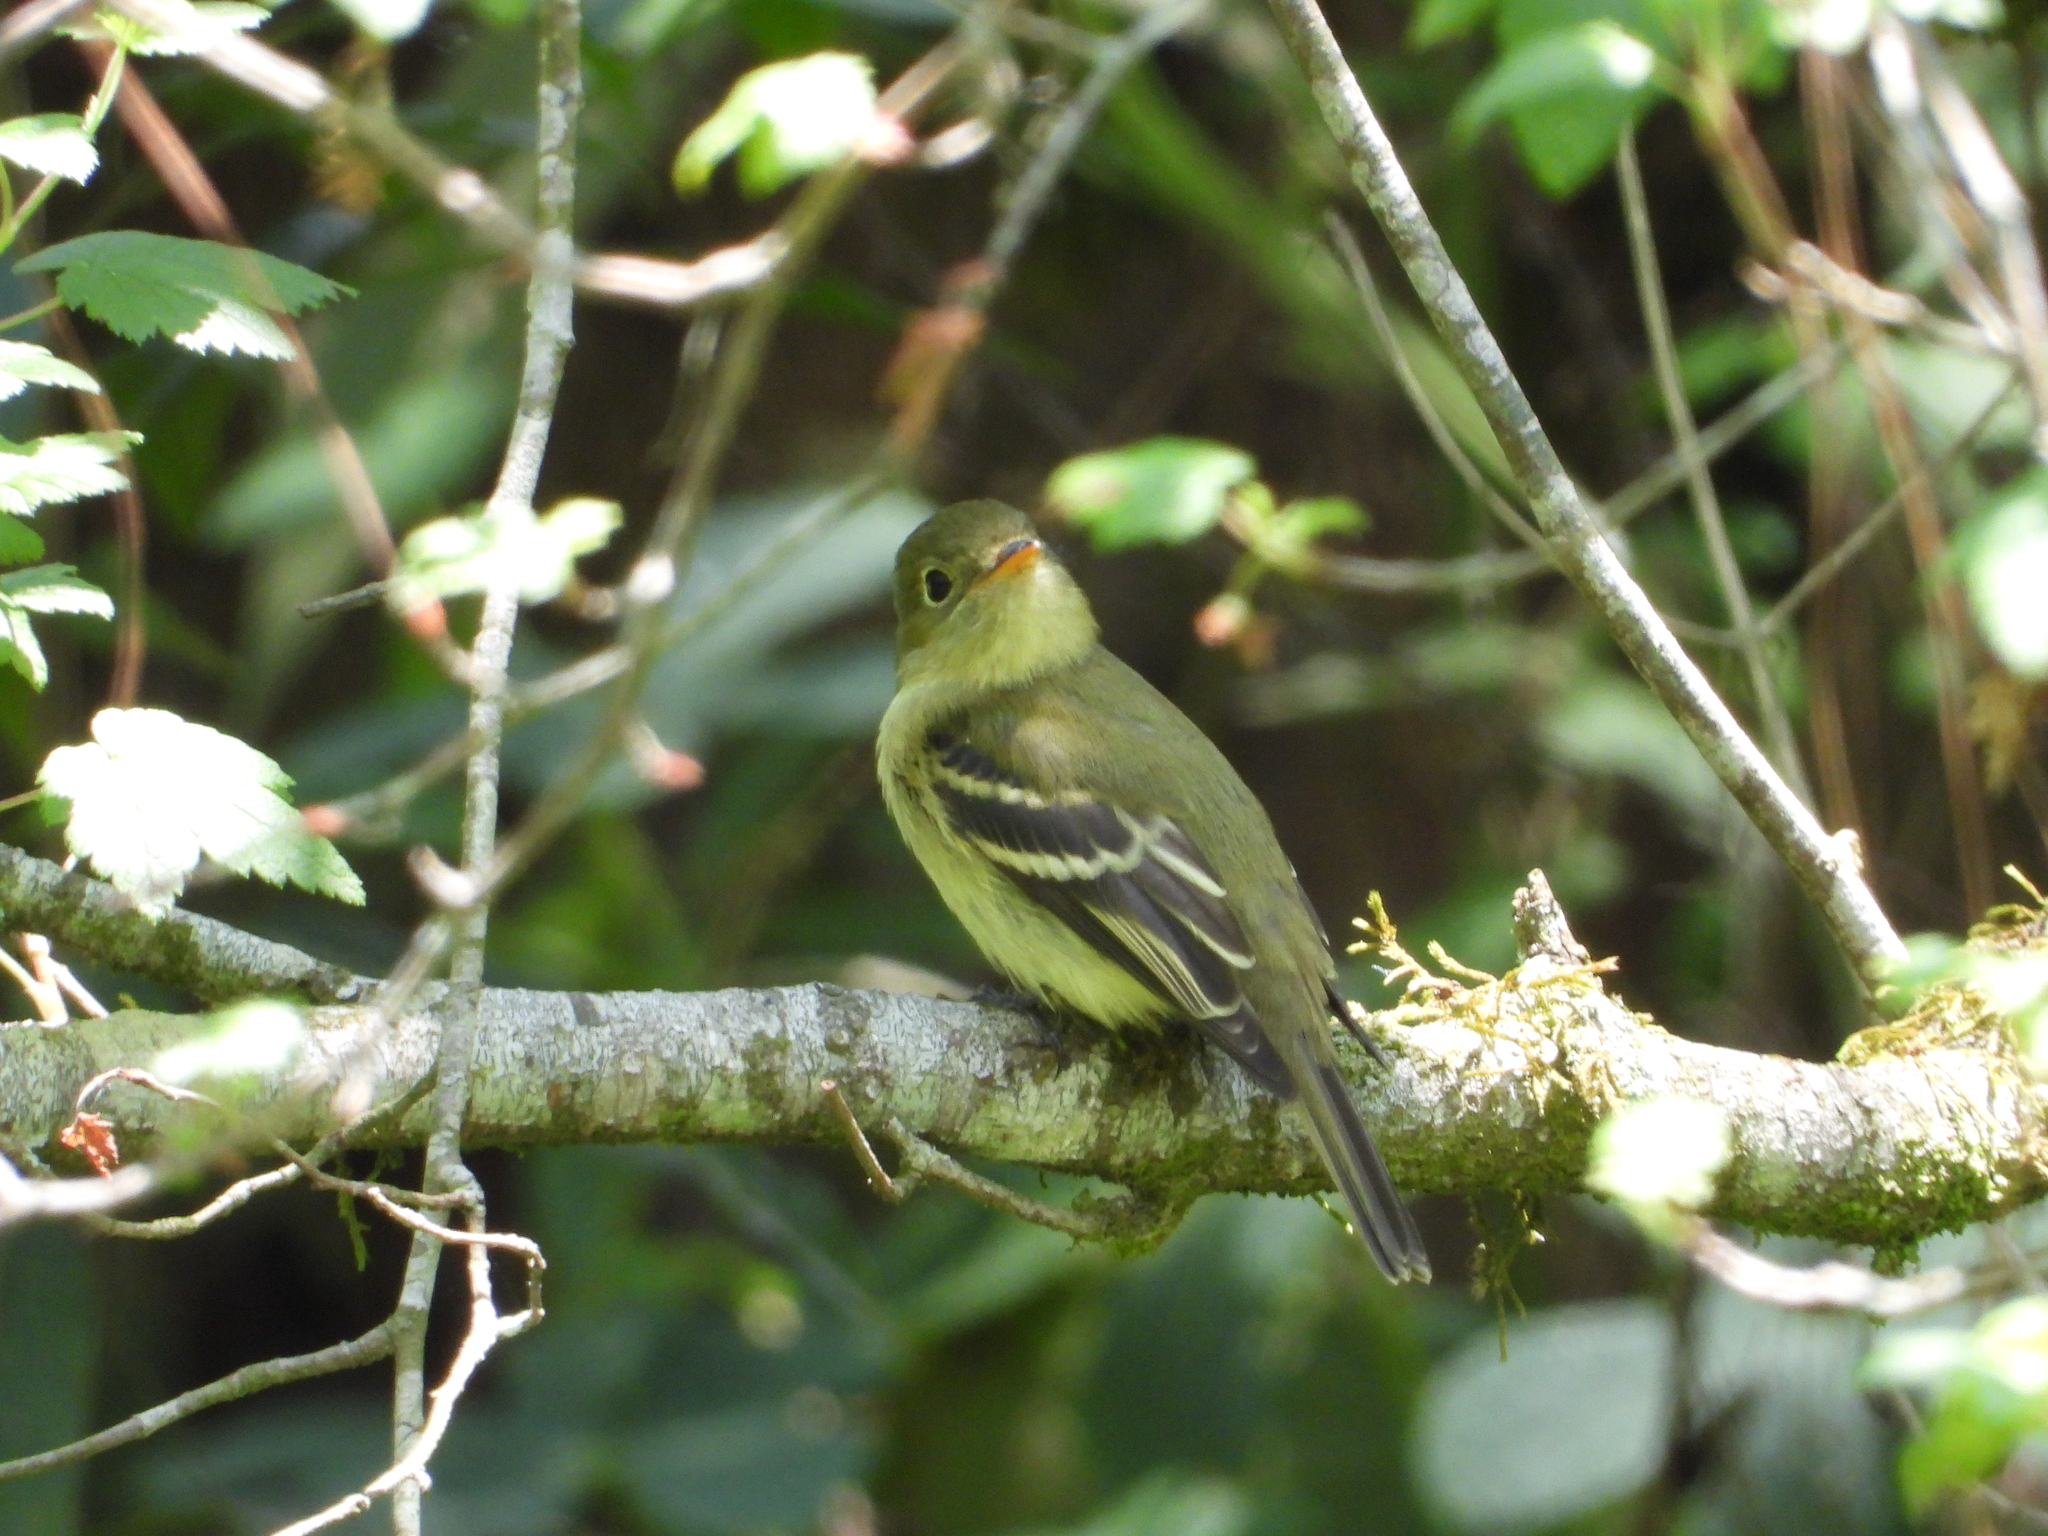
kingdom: Animalia
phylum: Chordata
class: Aves
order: Passeriformes
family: Tyrannidae
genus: Empidonax
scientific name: Empidonax flaviventris
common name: Yellow-bellied flycatcher
